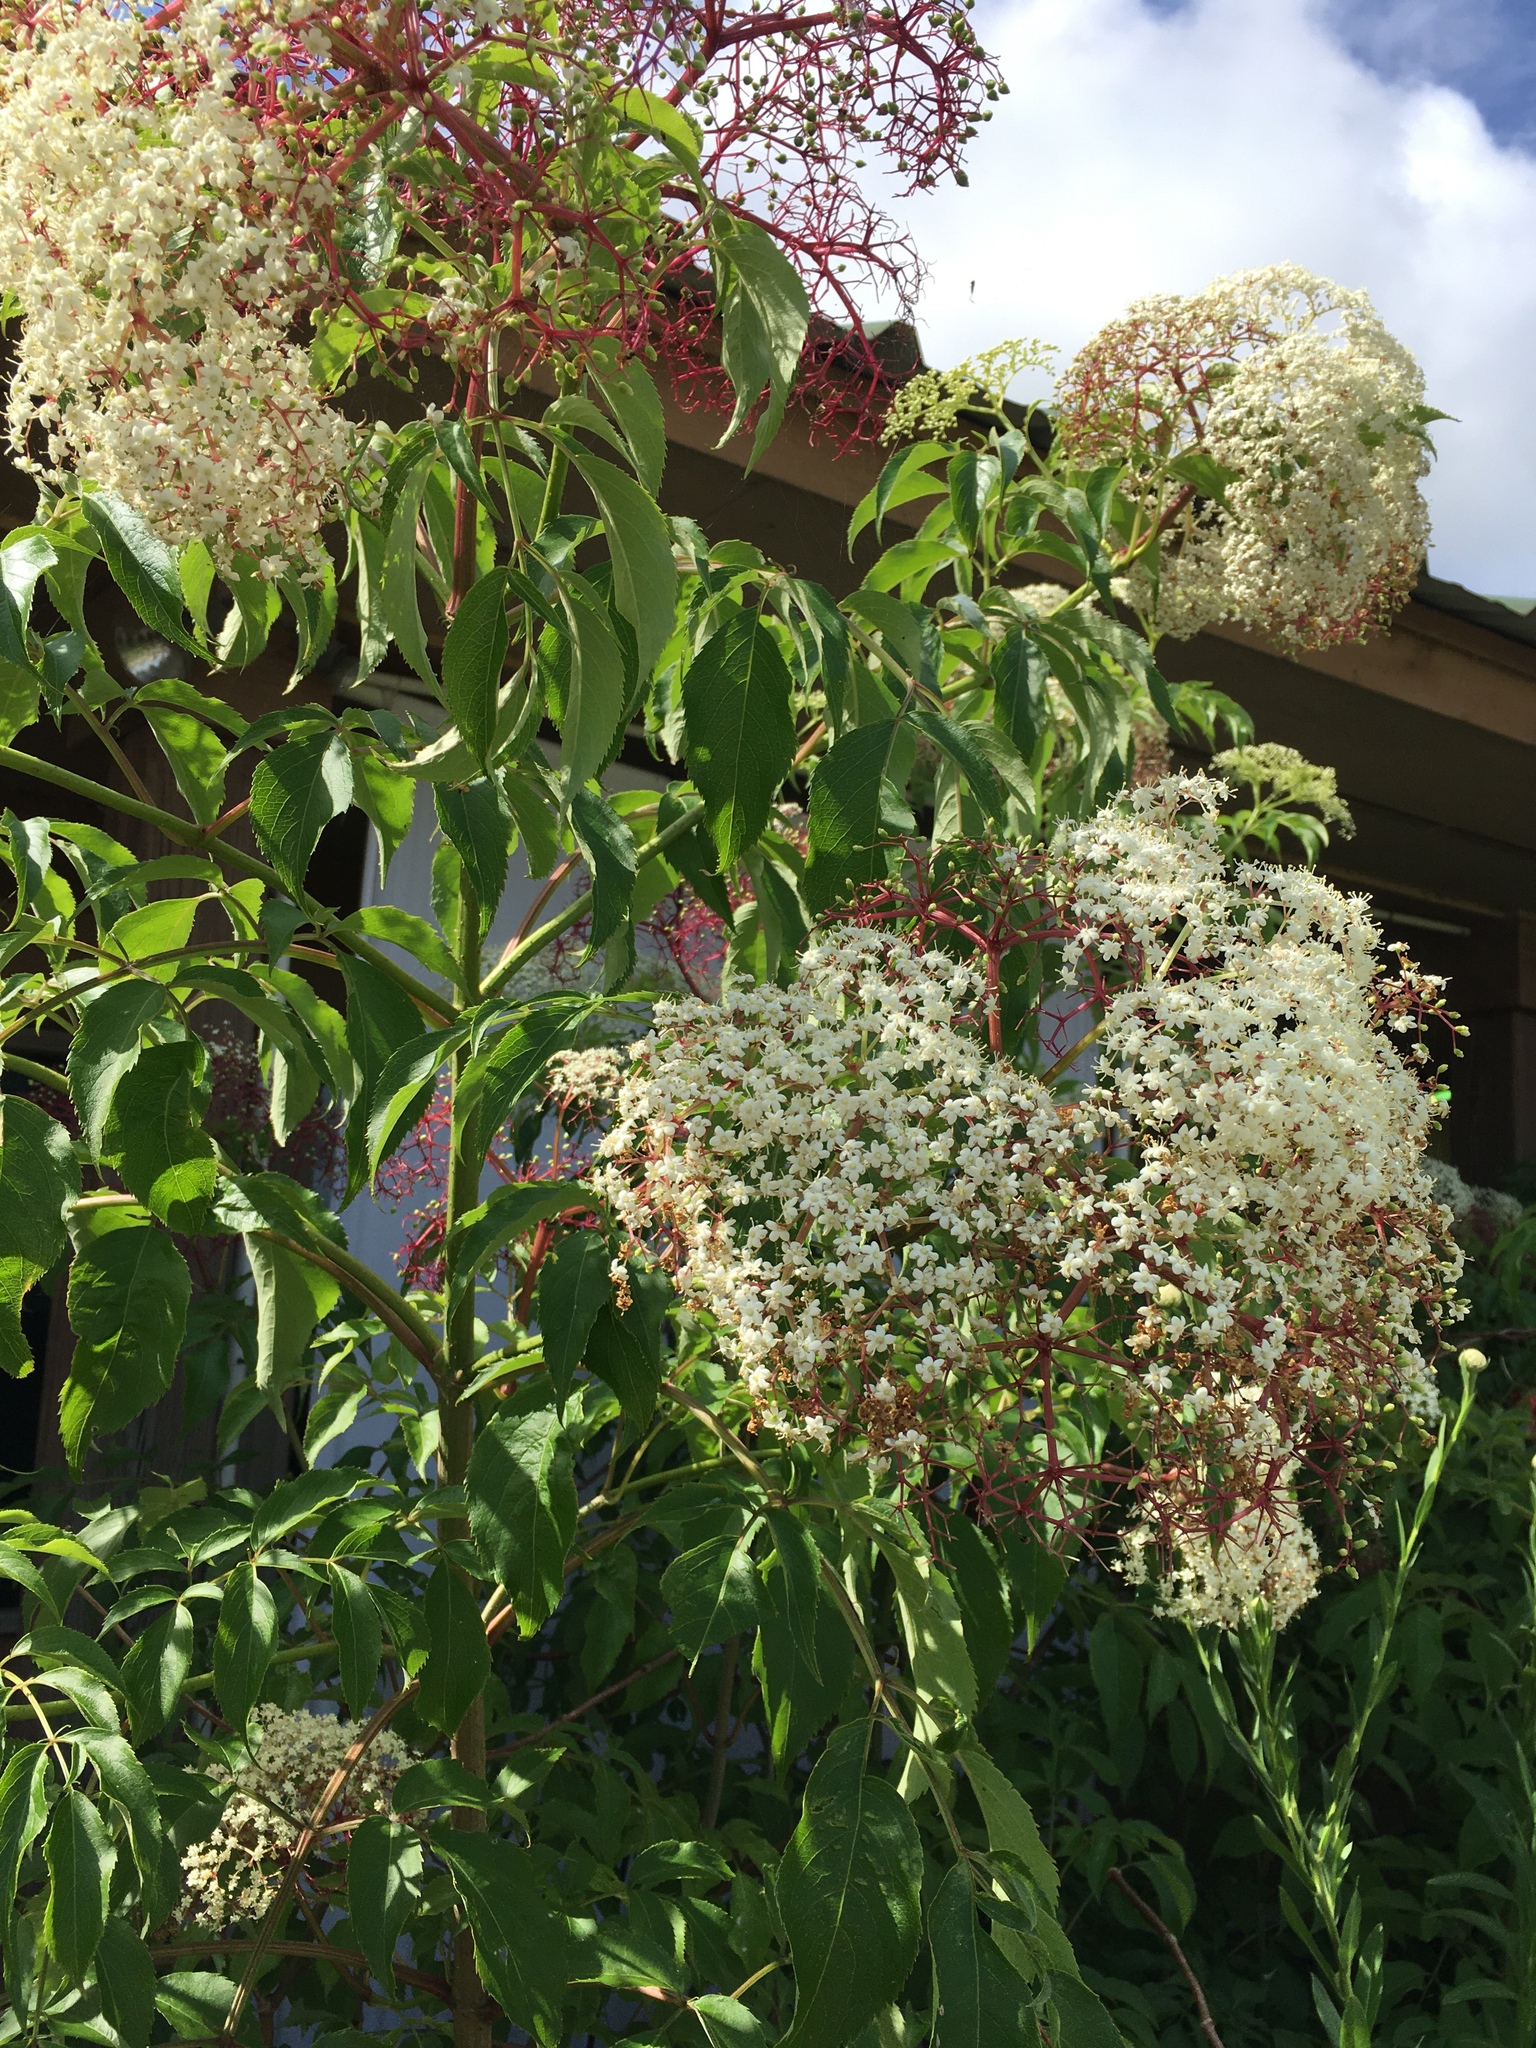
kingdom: Plantae
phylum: Tracheophyta
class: Magnoliopsida
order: Dipsacales
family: Viburnaceae
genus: Sambucus
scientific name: Sambucus canadensis
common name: American elder
